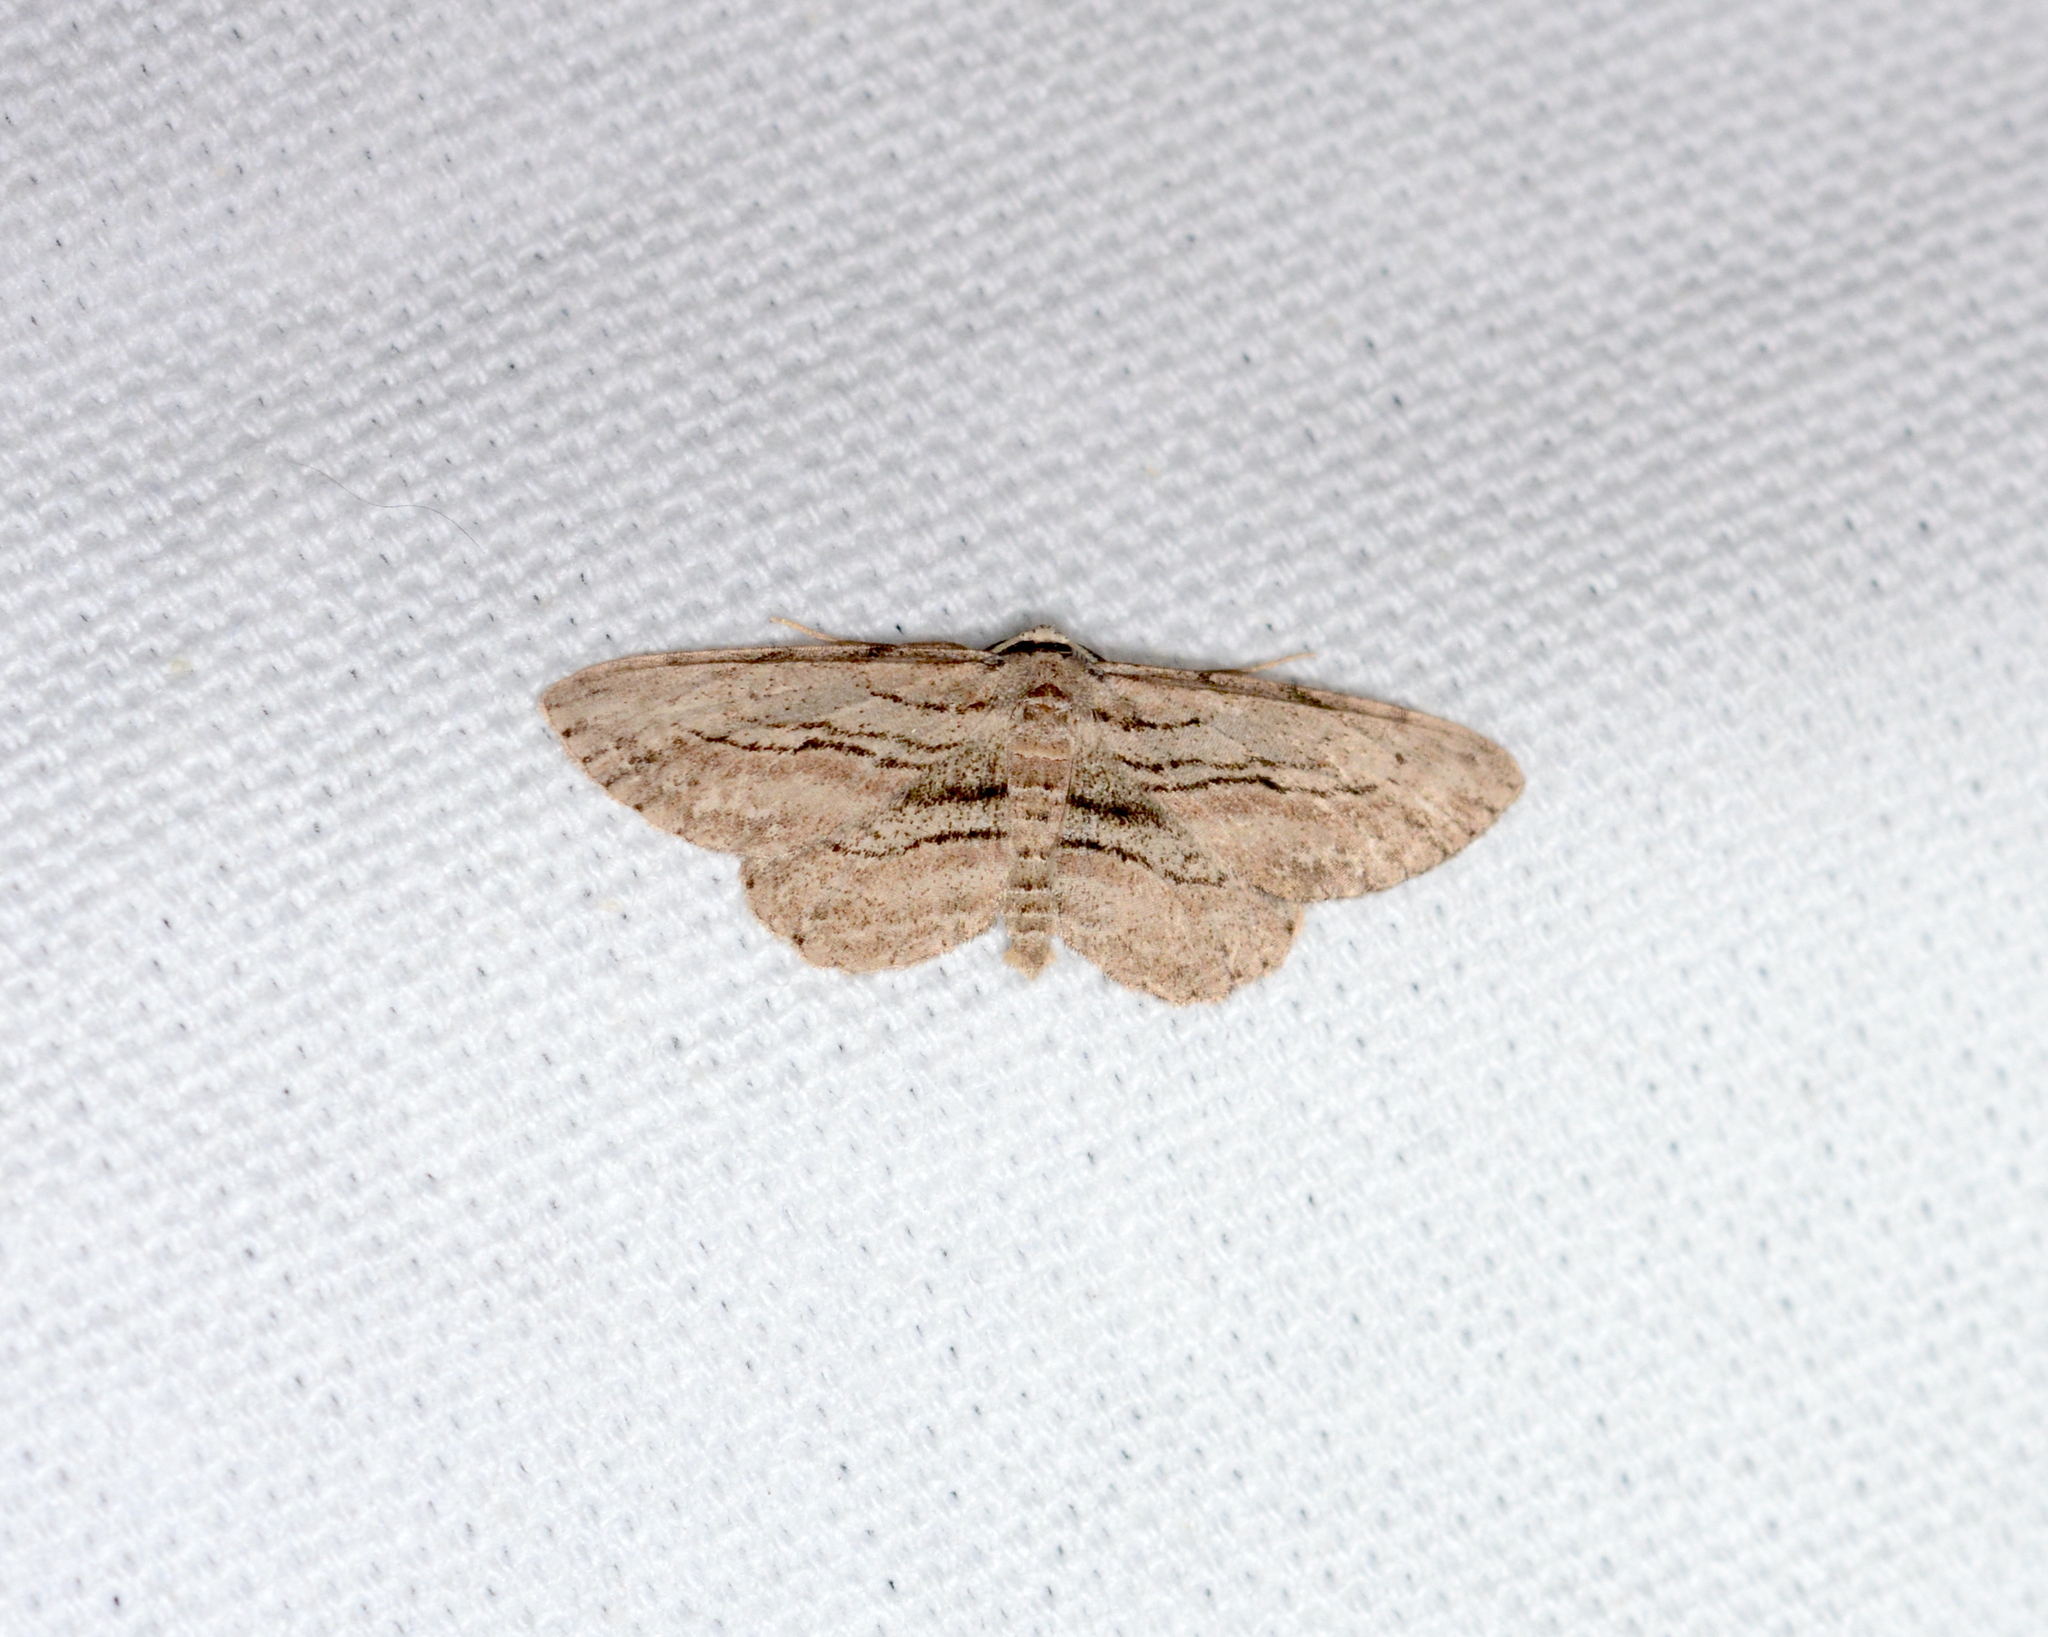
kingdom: Animalia
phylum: Arthropoda
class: Insecta
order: Lepidoptera
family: Geometridae
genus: Glena
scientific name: Glena plumosaria
